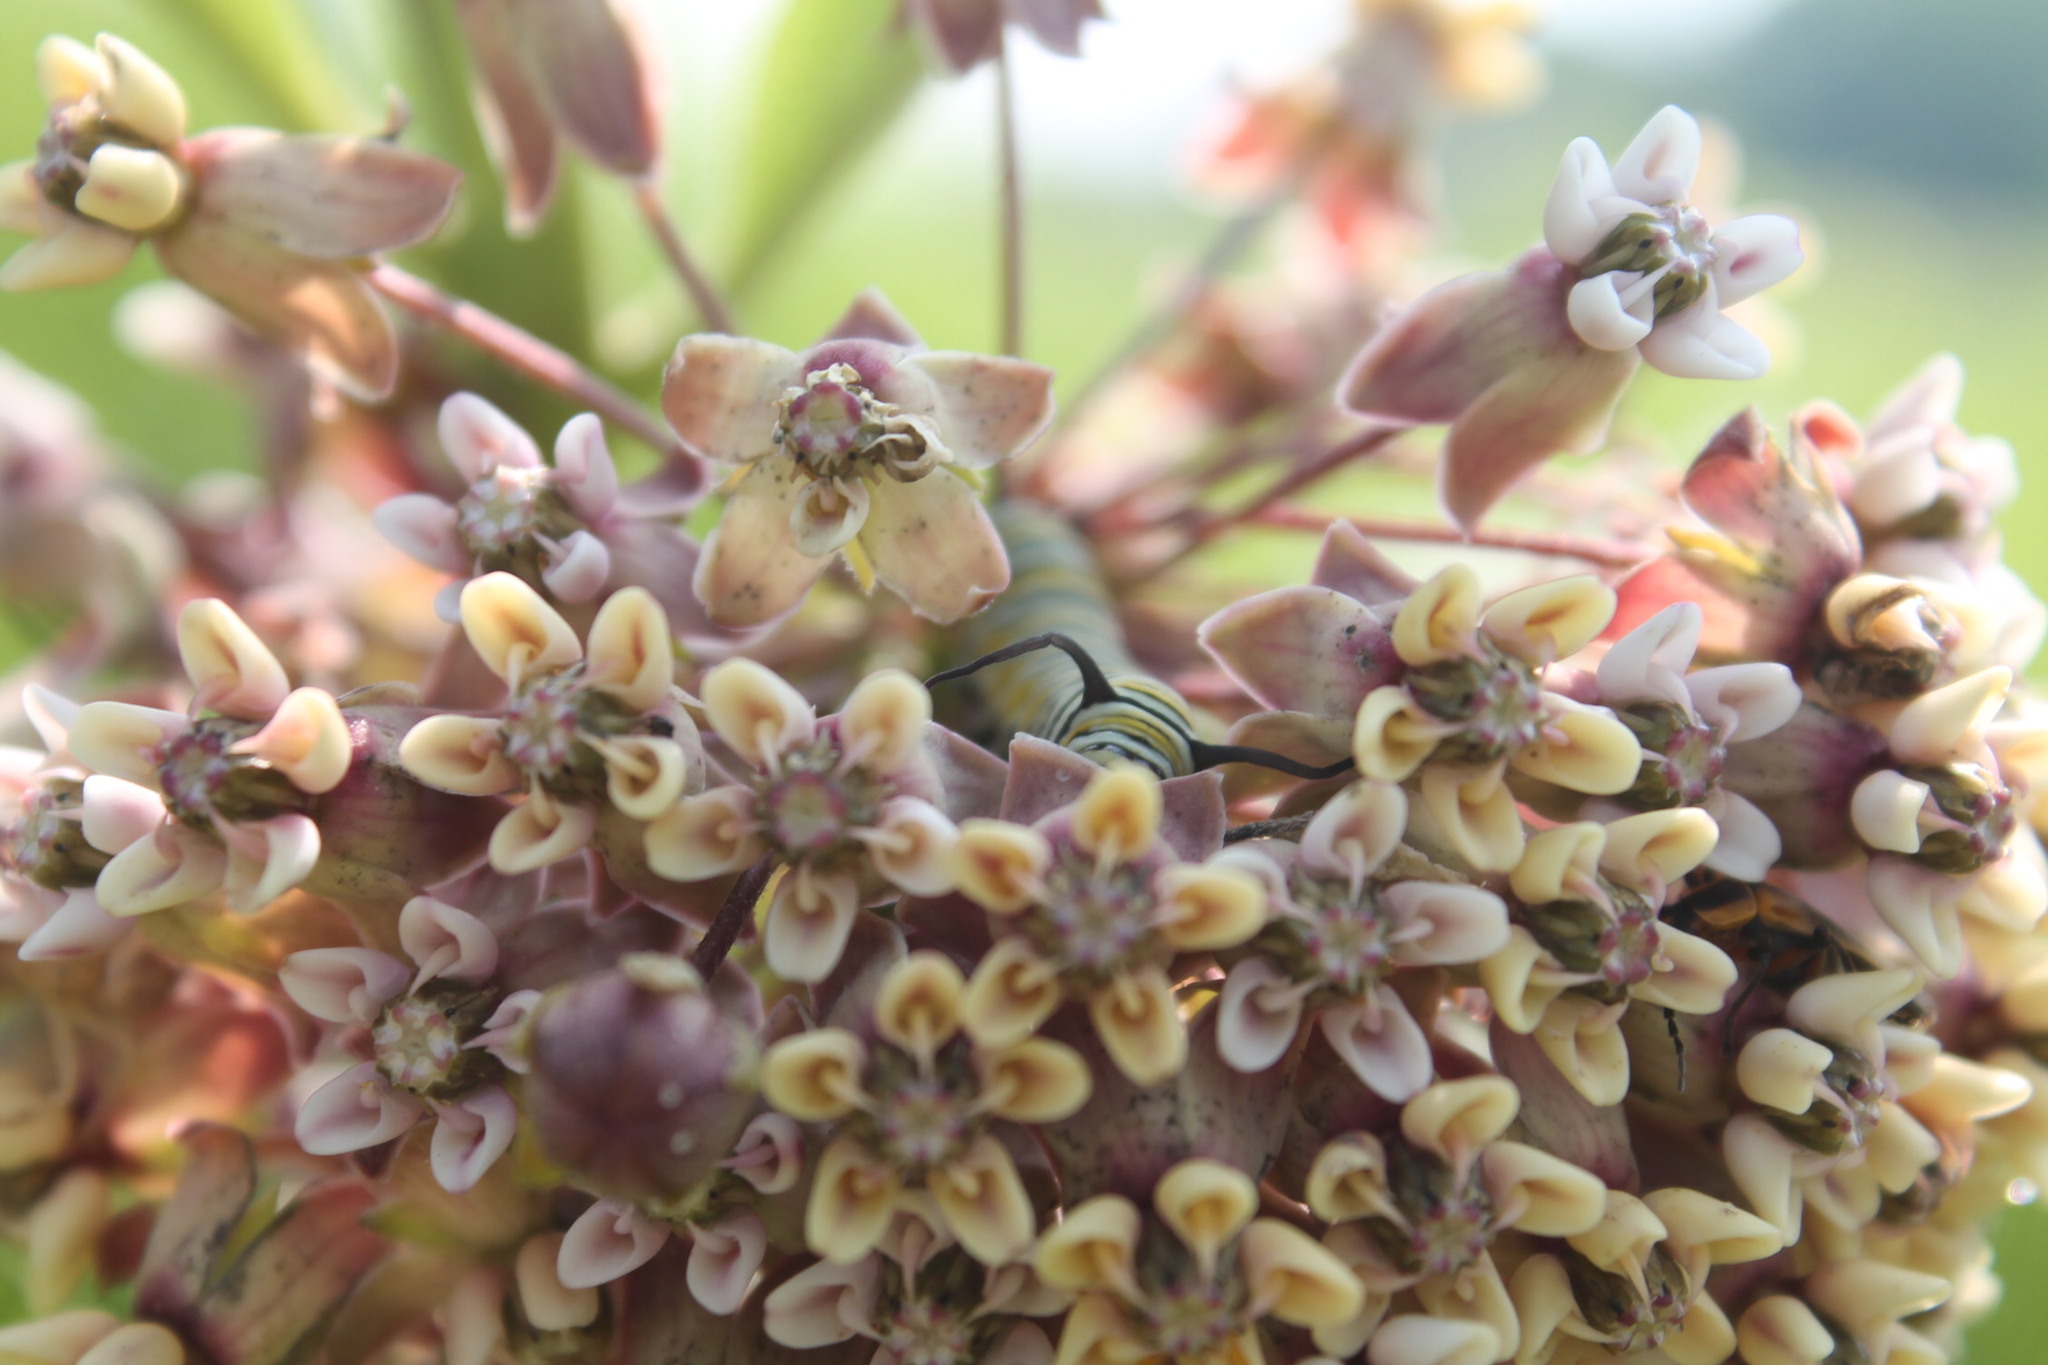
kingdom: Animalia
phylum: Arthropoda
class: Insecta
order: Lepidoptera
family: Nymphalidae
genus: Danaus
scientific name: Danaus plexippus
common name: Monarch
